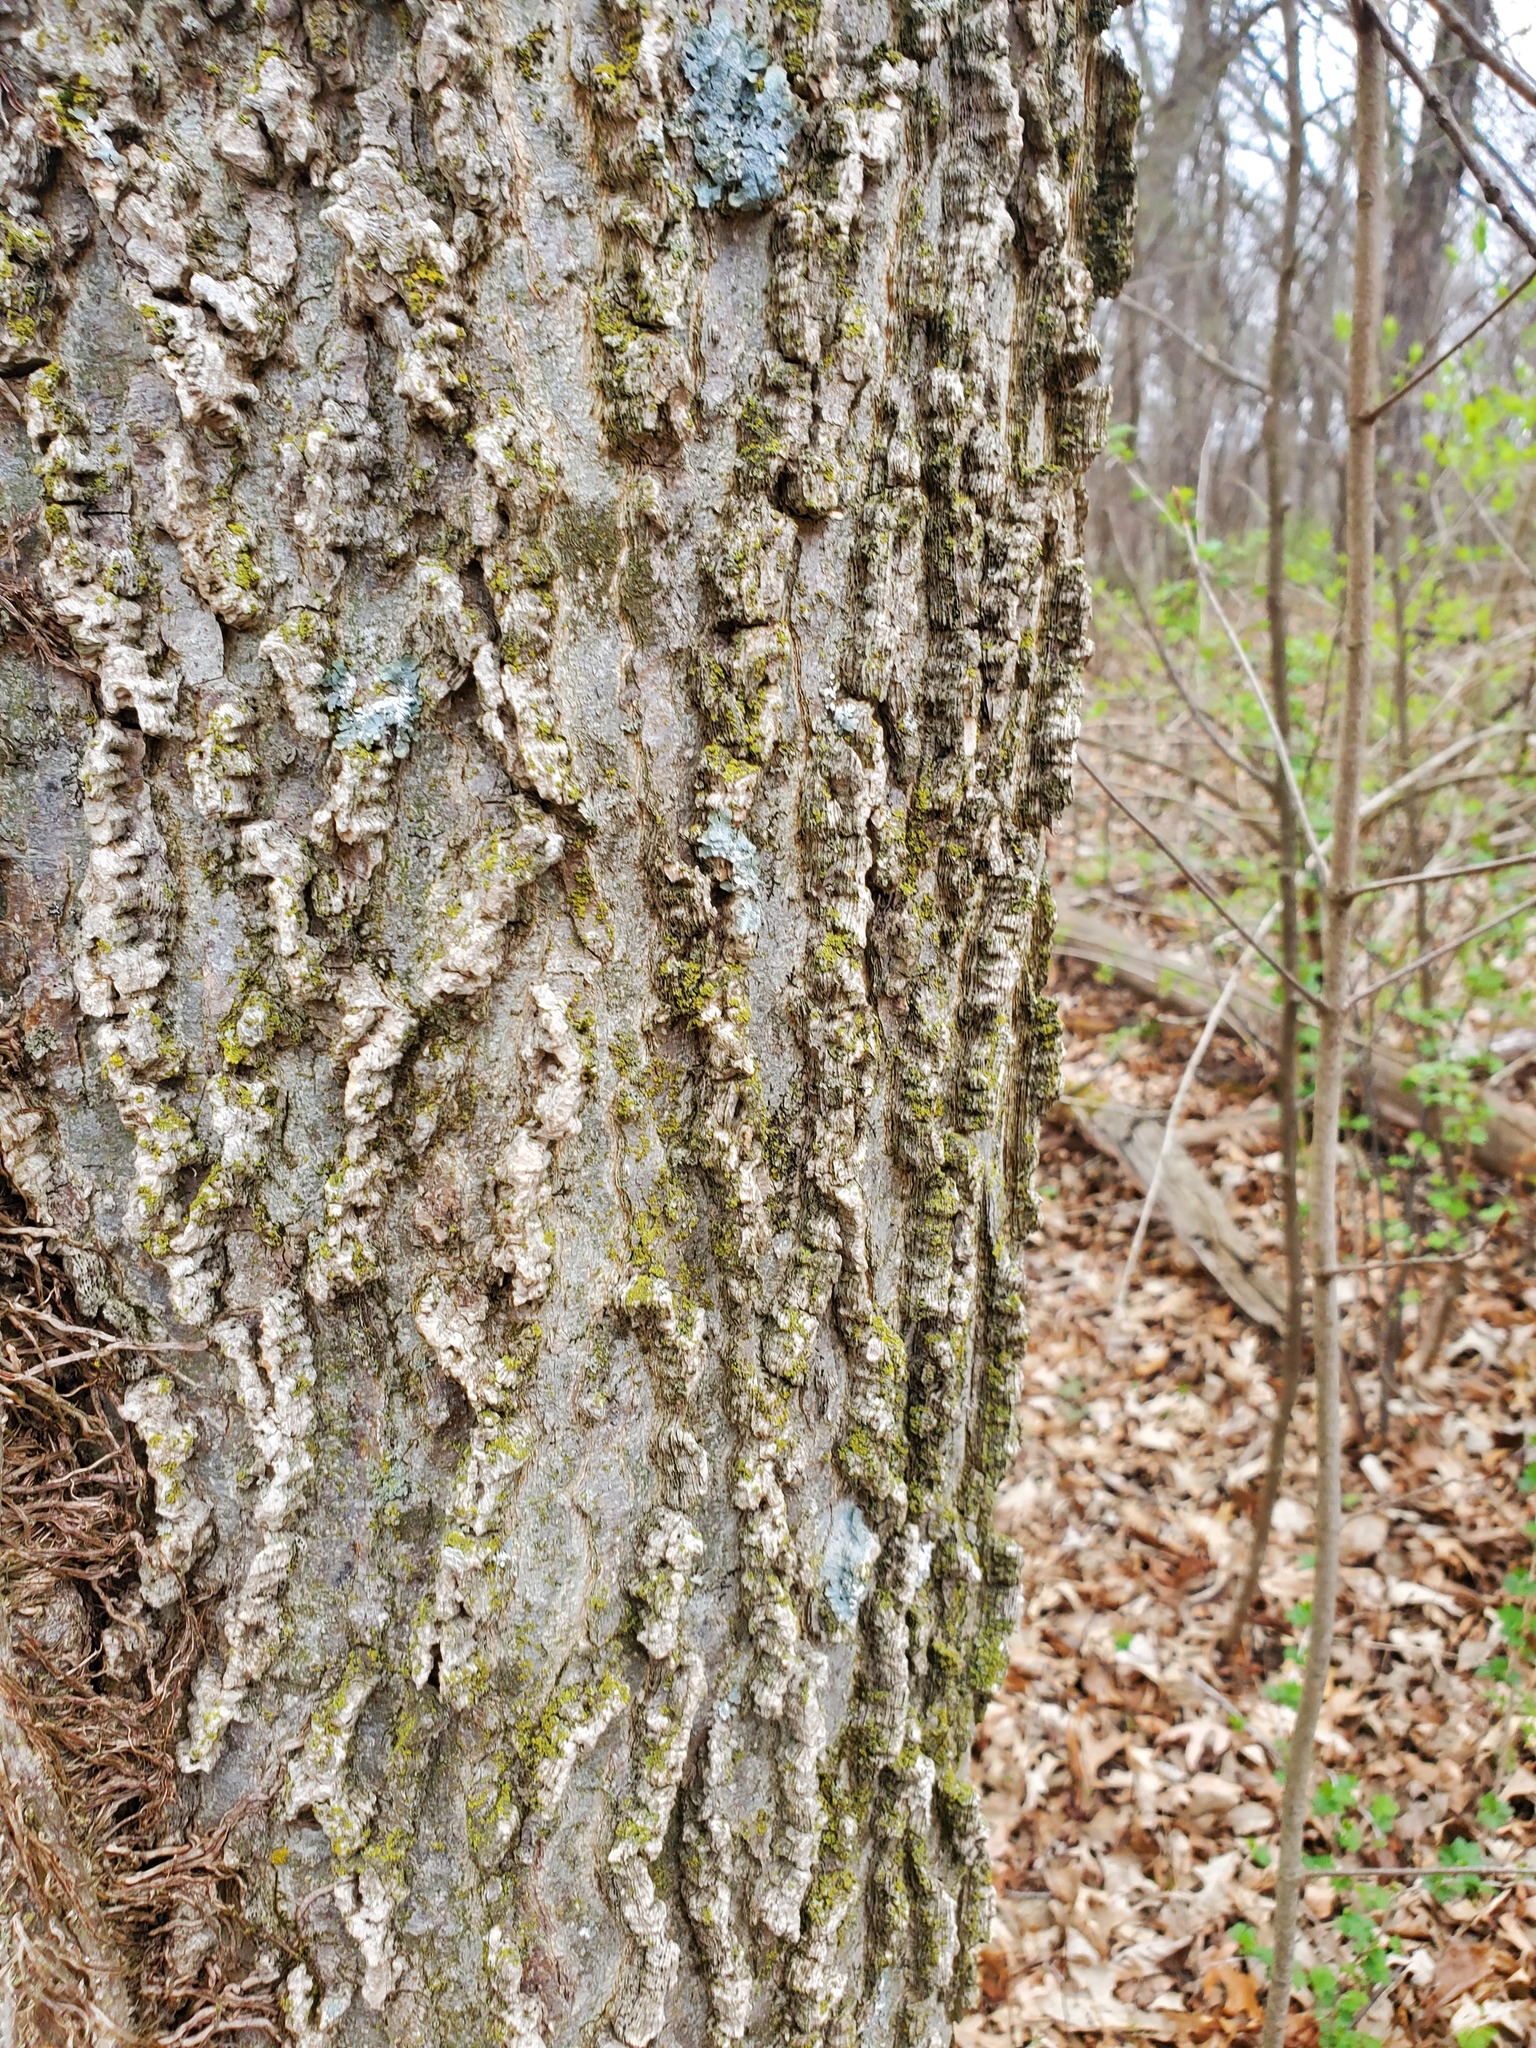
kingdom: Plantae
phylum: Tracheophyta
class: Magnoliopsida
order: Rosales
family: Cannabaceae
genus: Celtis
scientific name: Celtis occidentalis
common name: Common hackberry
